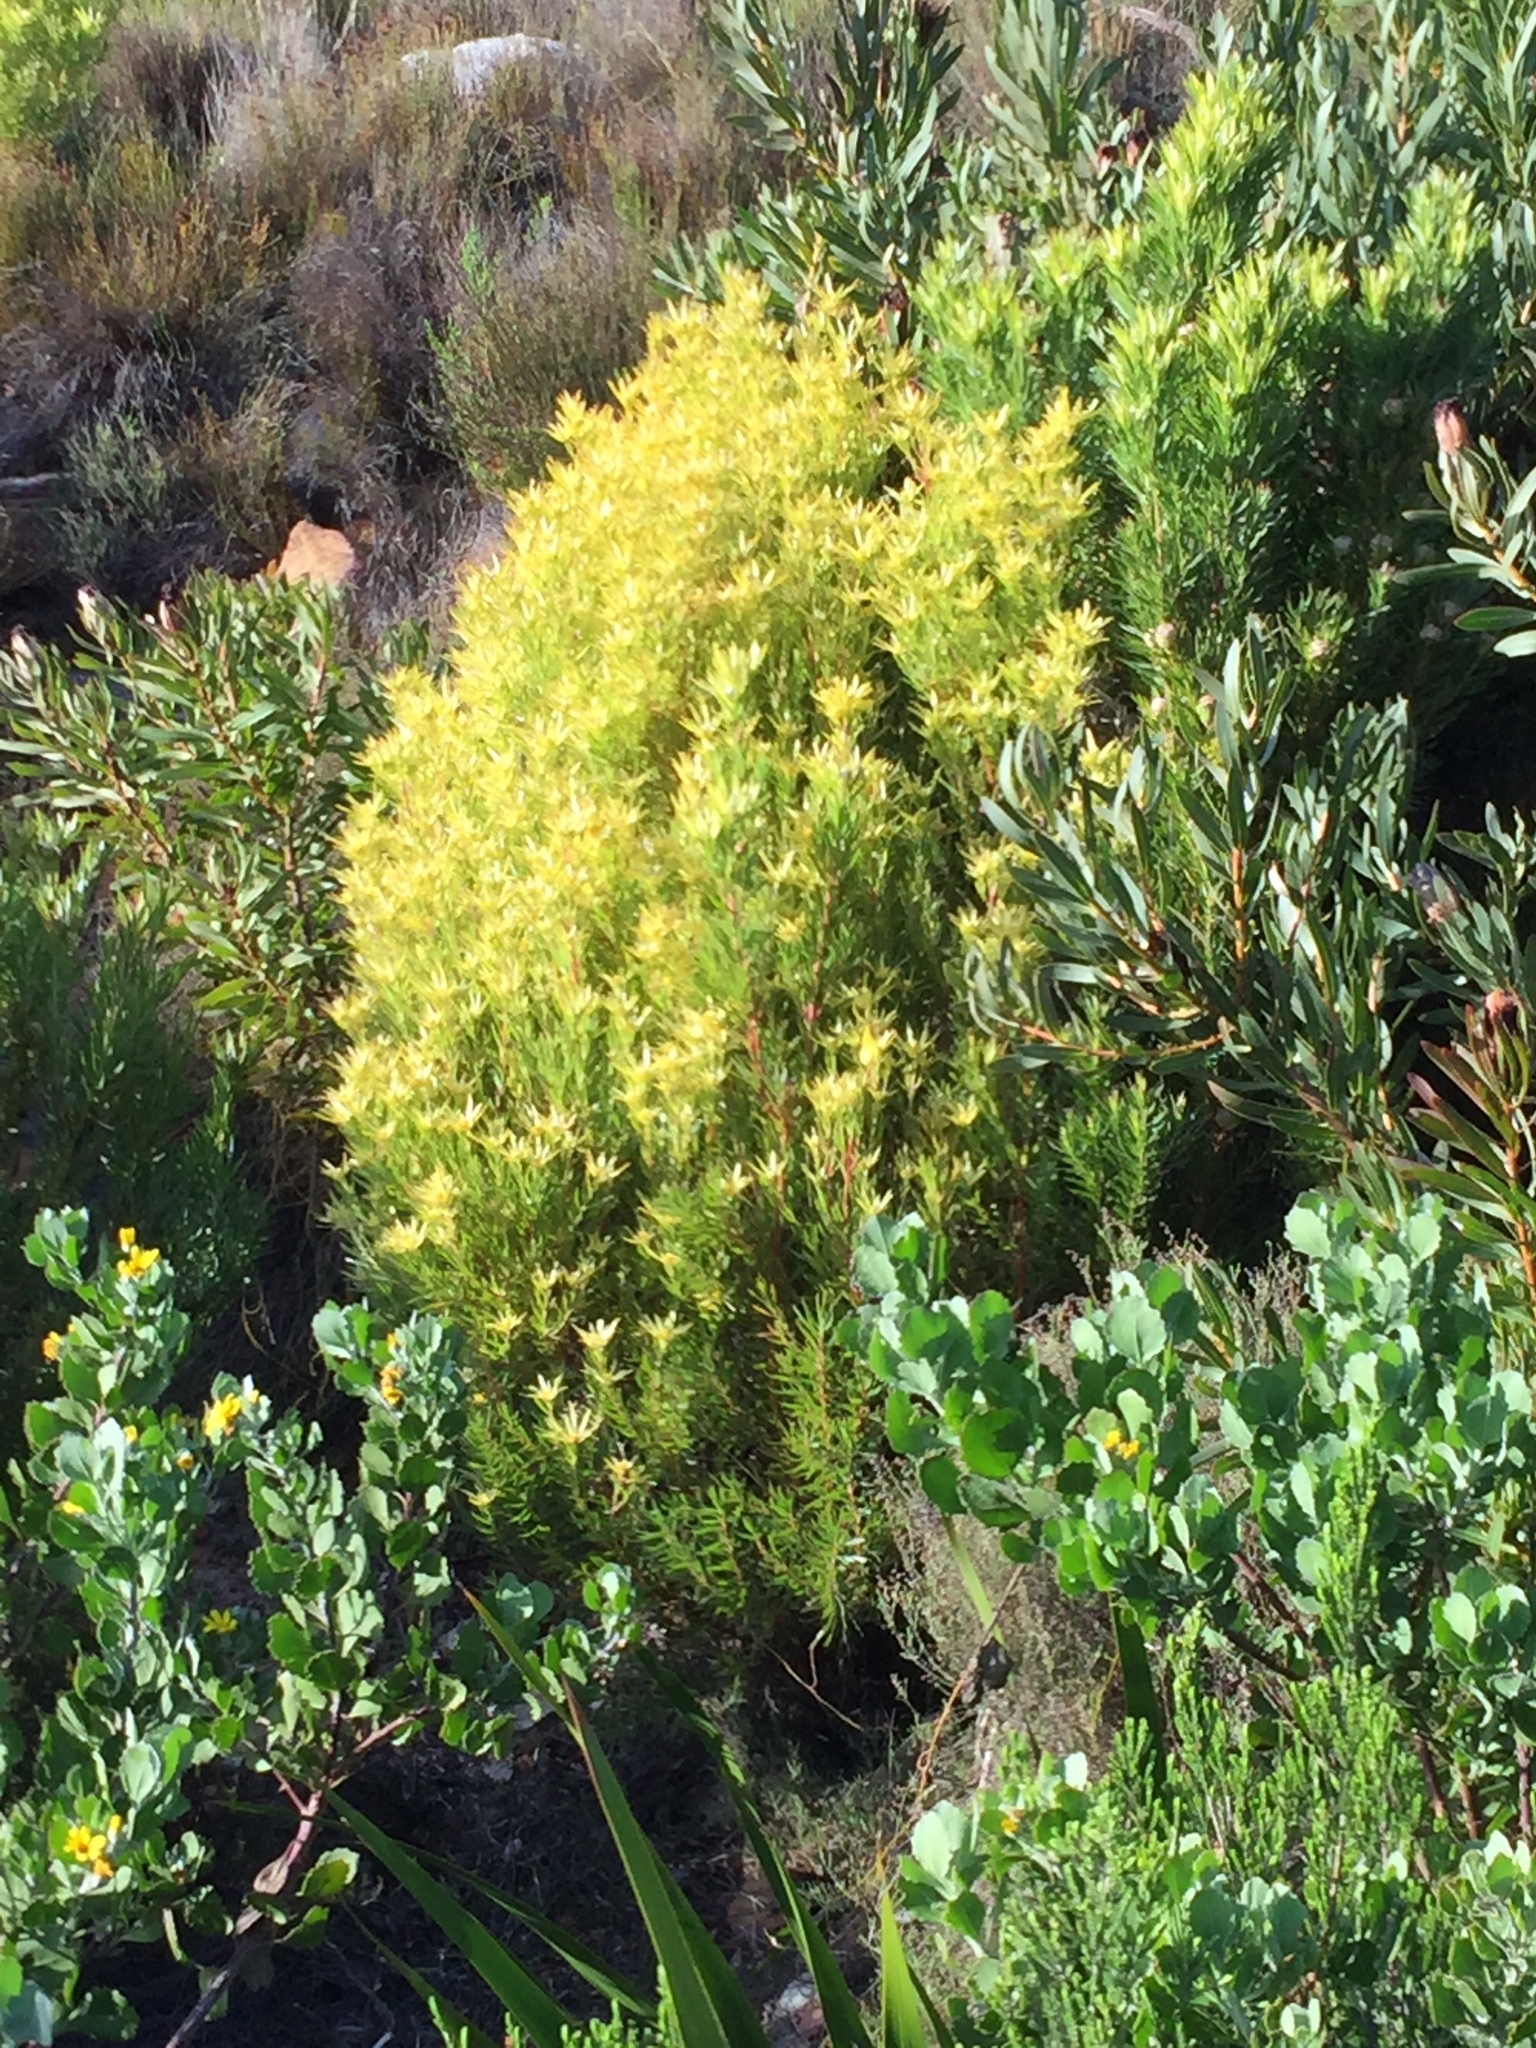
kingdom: Plantae
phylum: Tracheophyta
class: Magnoliopsida
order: Proteales
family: Proteaceae
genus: Leucadendron
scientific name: Leucadendron xanthoconus
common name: Sickle-leaf conebush
